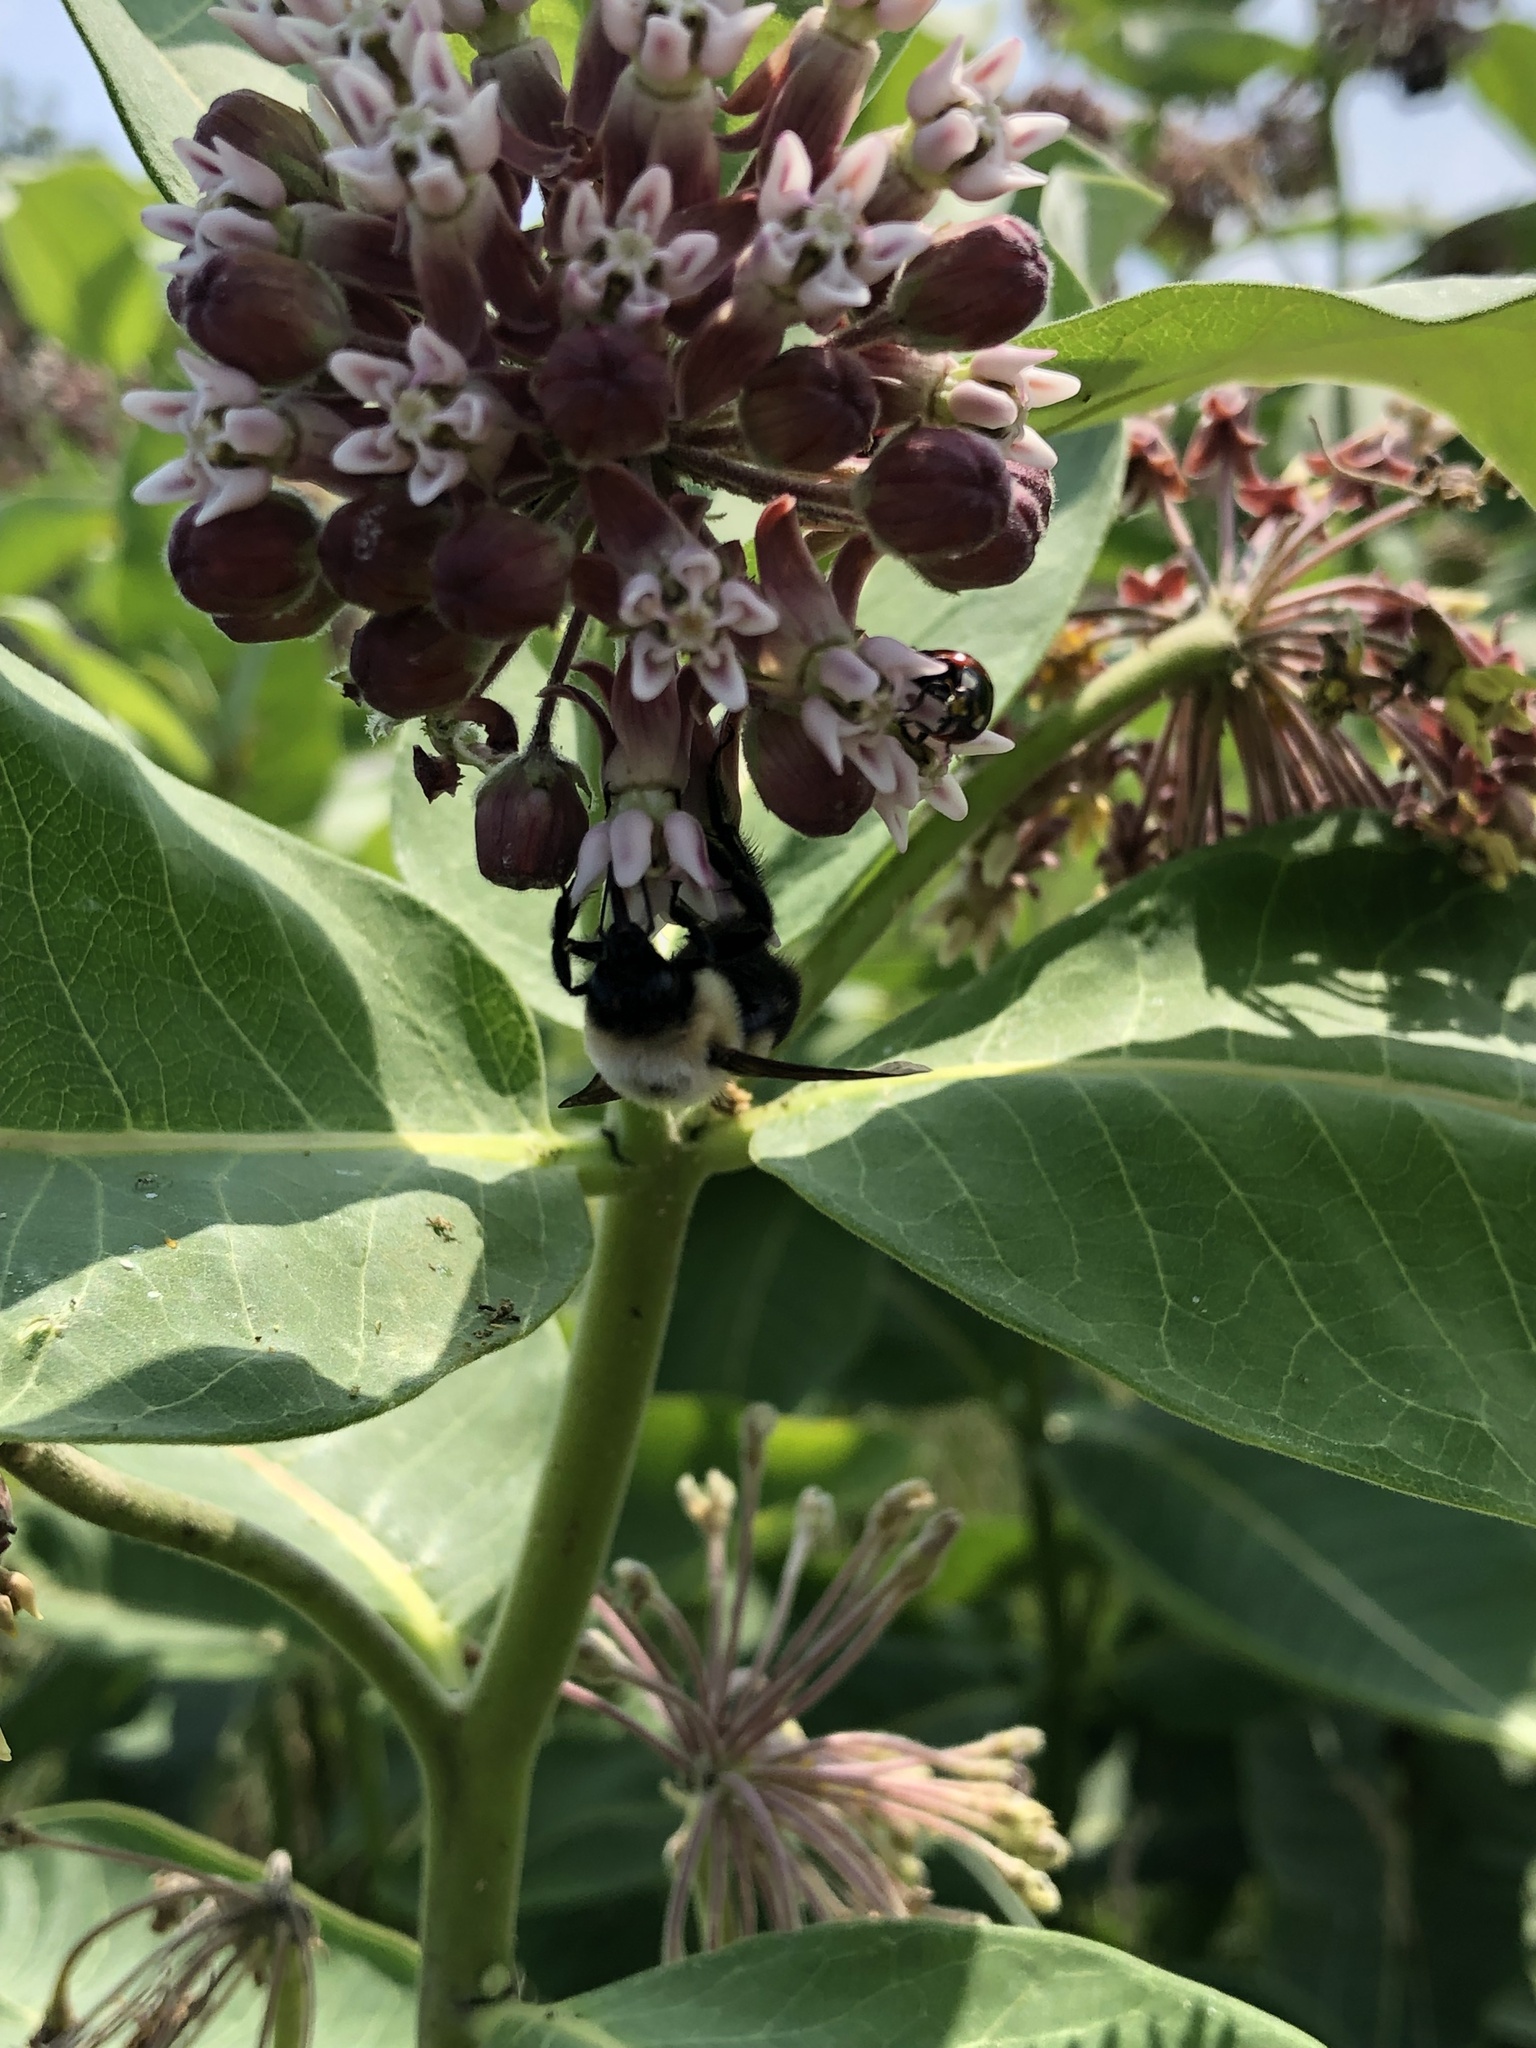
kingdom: Animalia
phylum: Arthropoda
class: Insecta
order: Hymenoptera
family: Apidae
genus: Bombus
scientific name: Bombus griseocollis
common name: Brown-belted bumble bee
